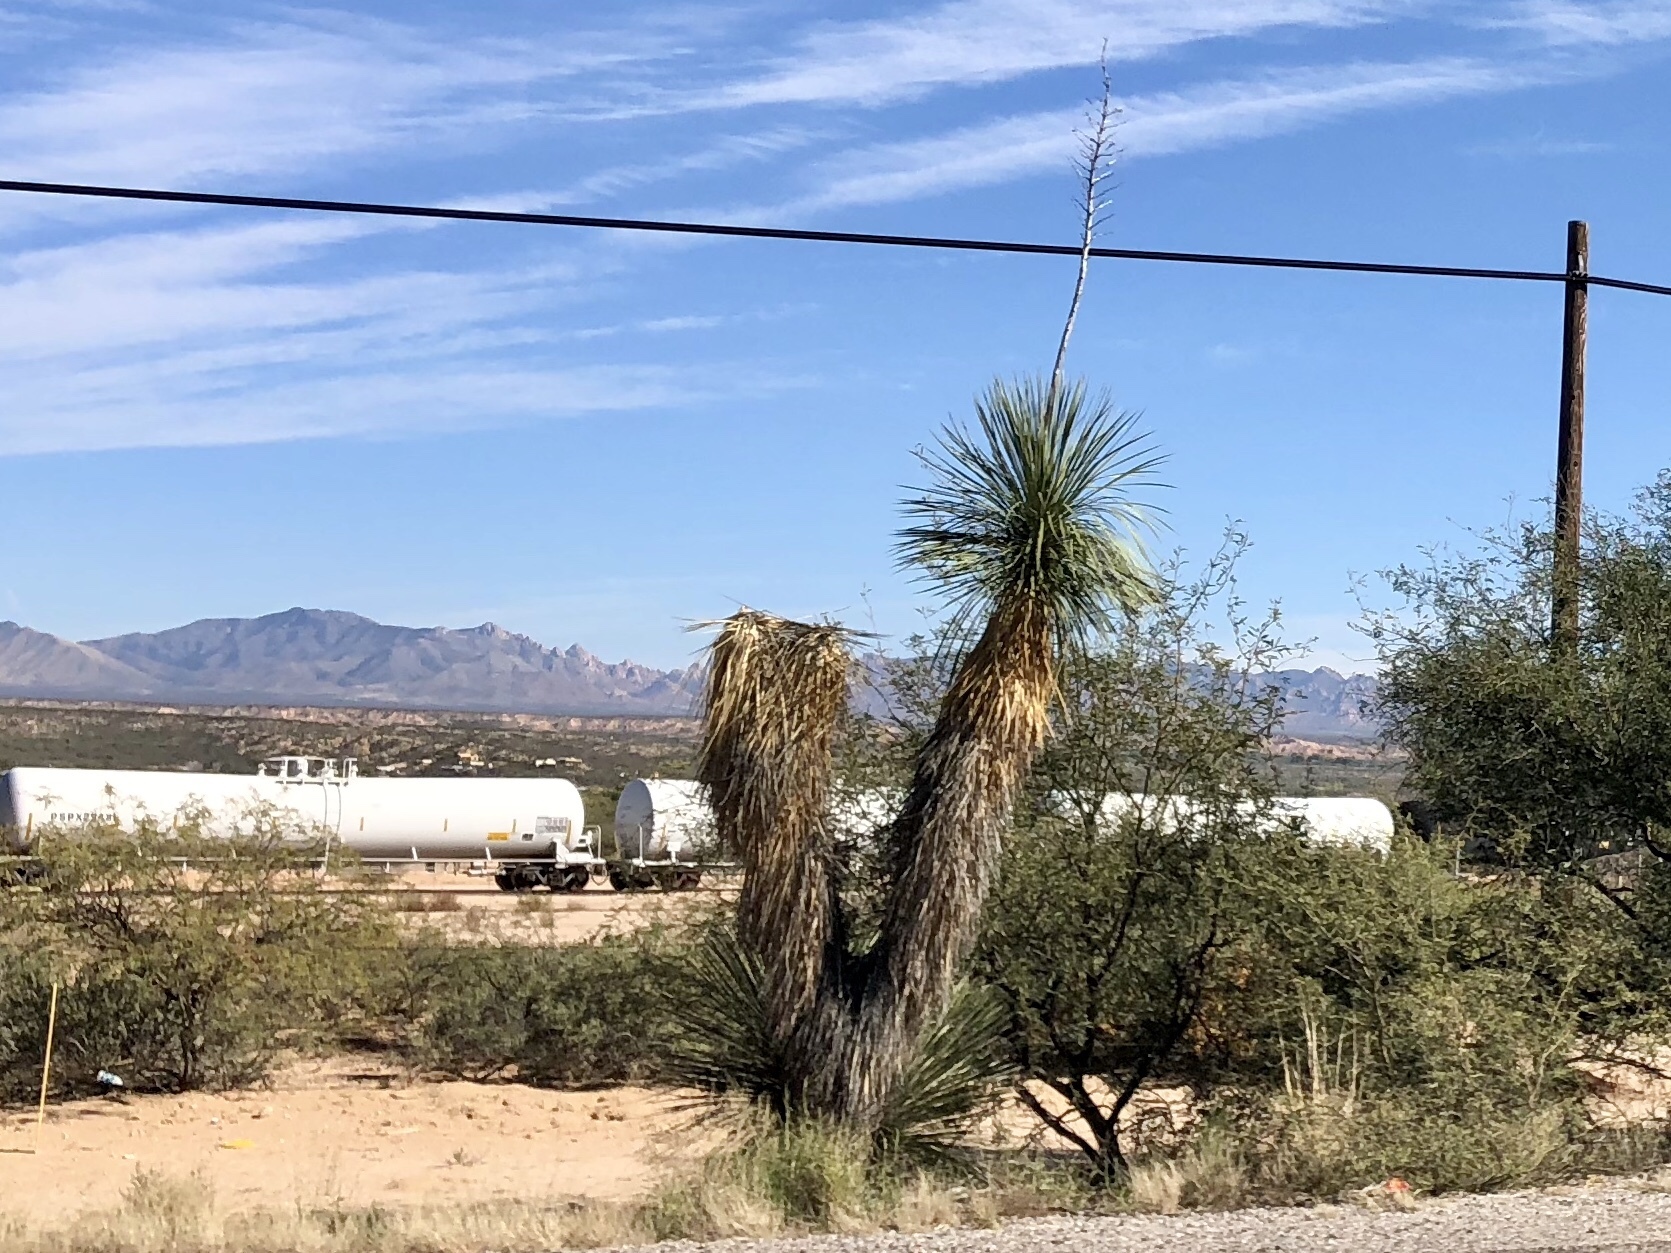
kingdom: Plantae
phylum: Tracheophyta
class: Liliopsida
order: Asparagales
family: Asparagaceae
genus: Yucca
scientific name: Yucca elata
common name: Palmella
